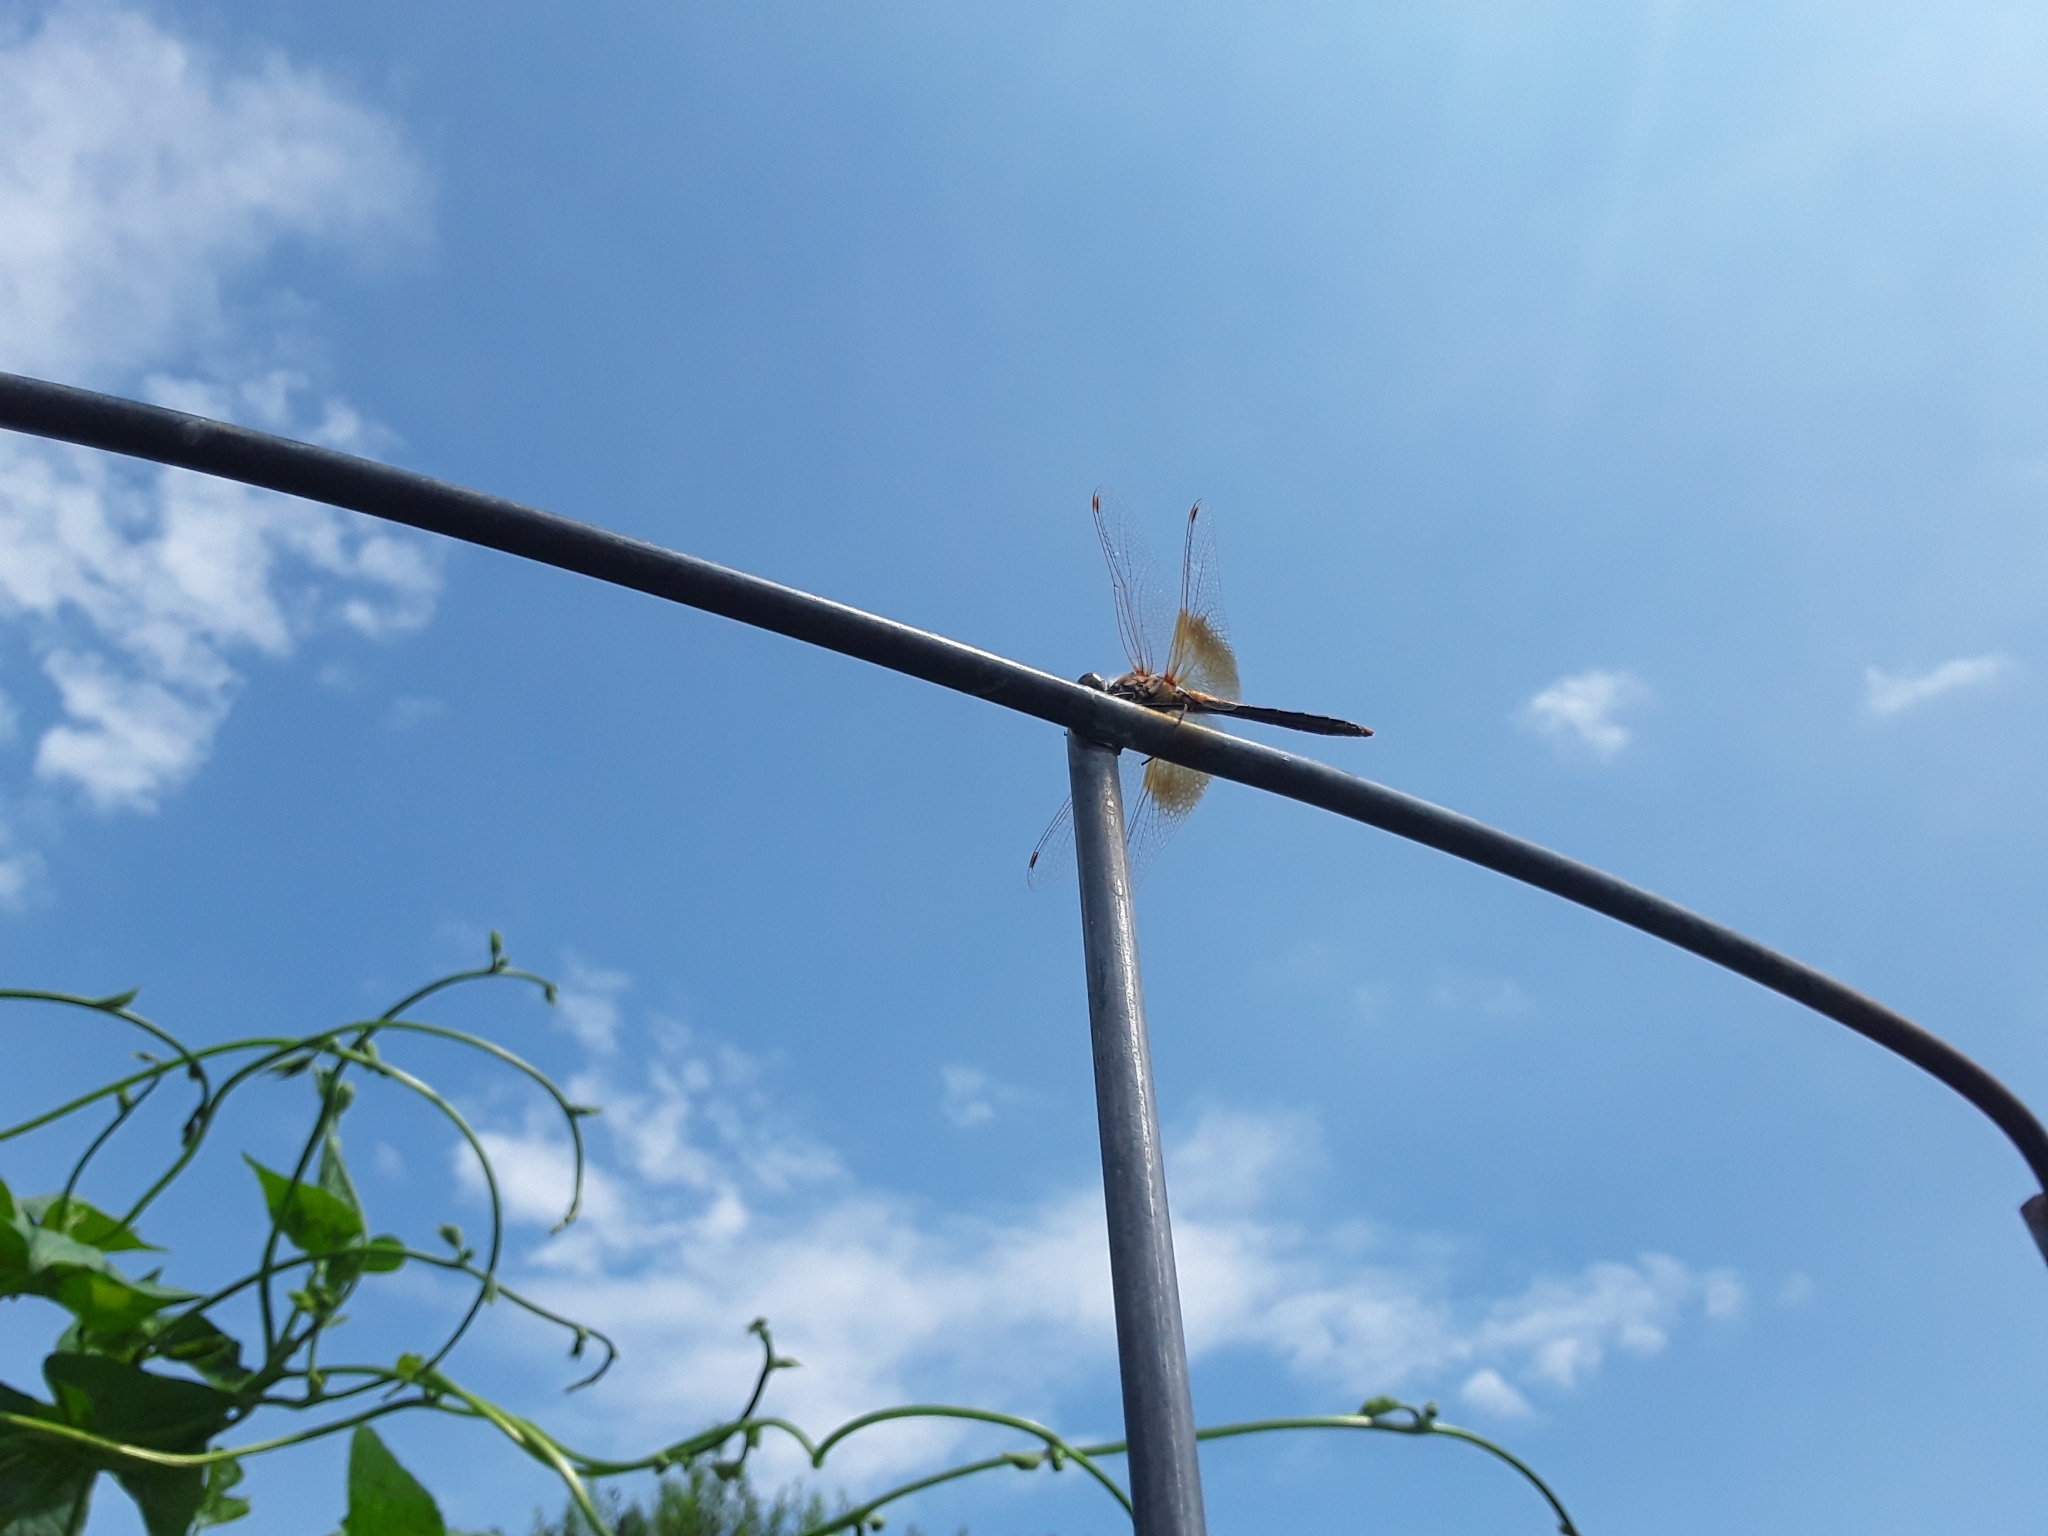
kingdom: Animalia
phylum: Arthropoda
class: Insecta
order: Odonata
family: Libellulidae
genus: Sympetrum
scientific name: Sympetrum semicinctum
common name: Band-winged meadowhawk
